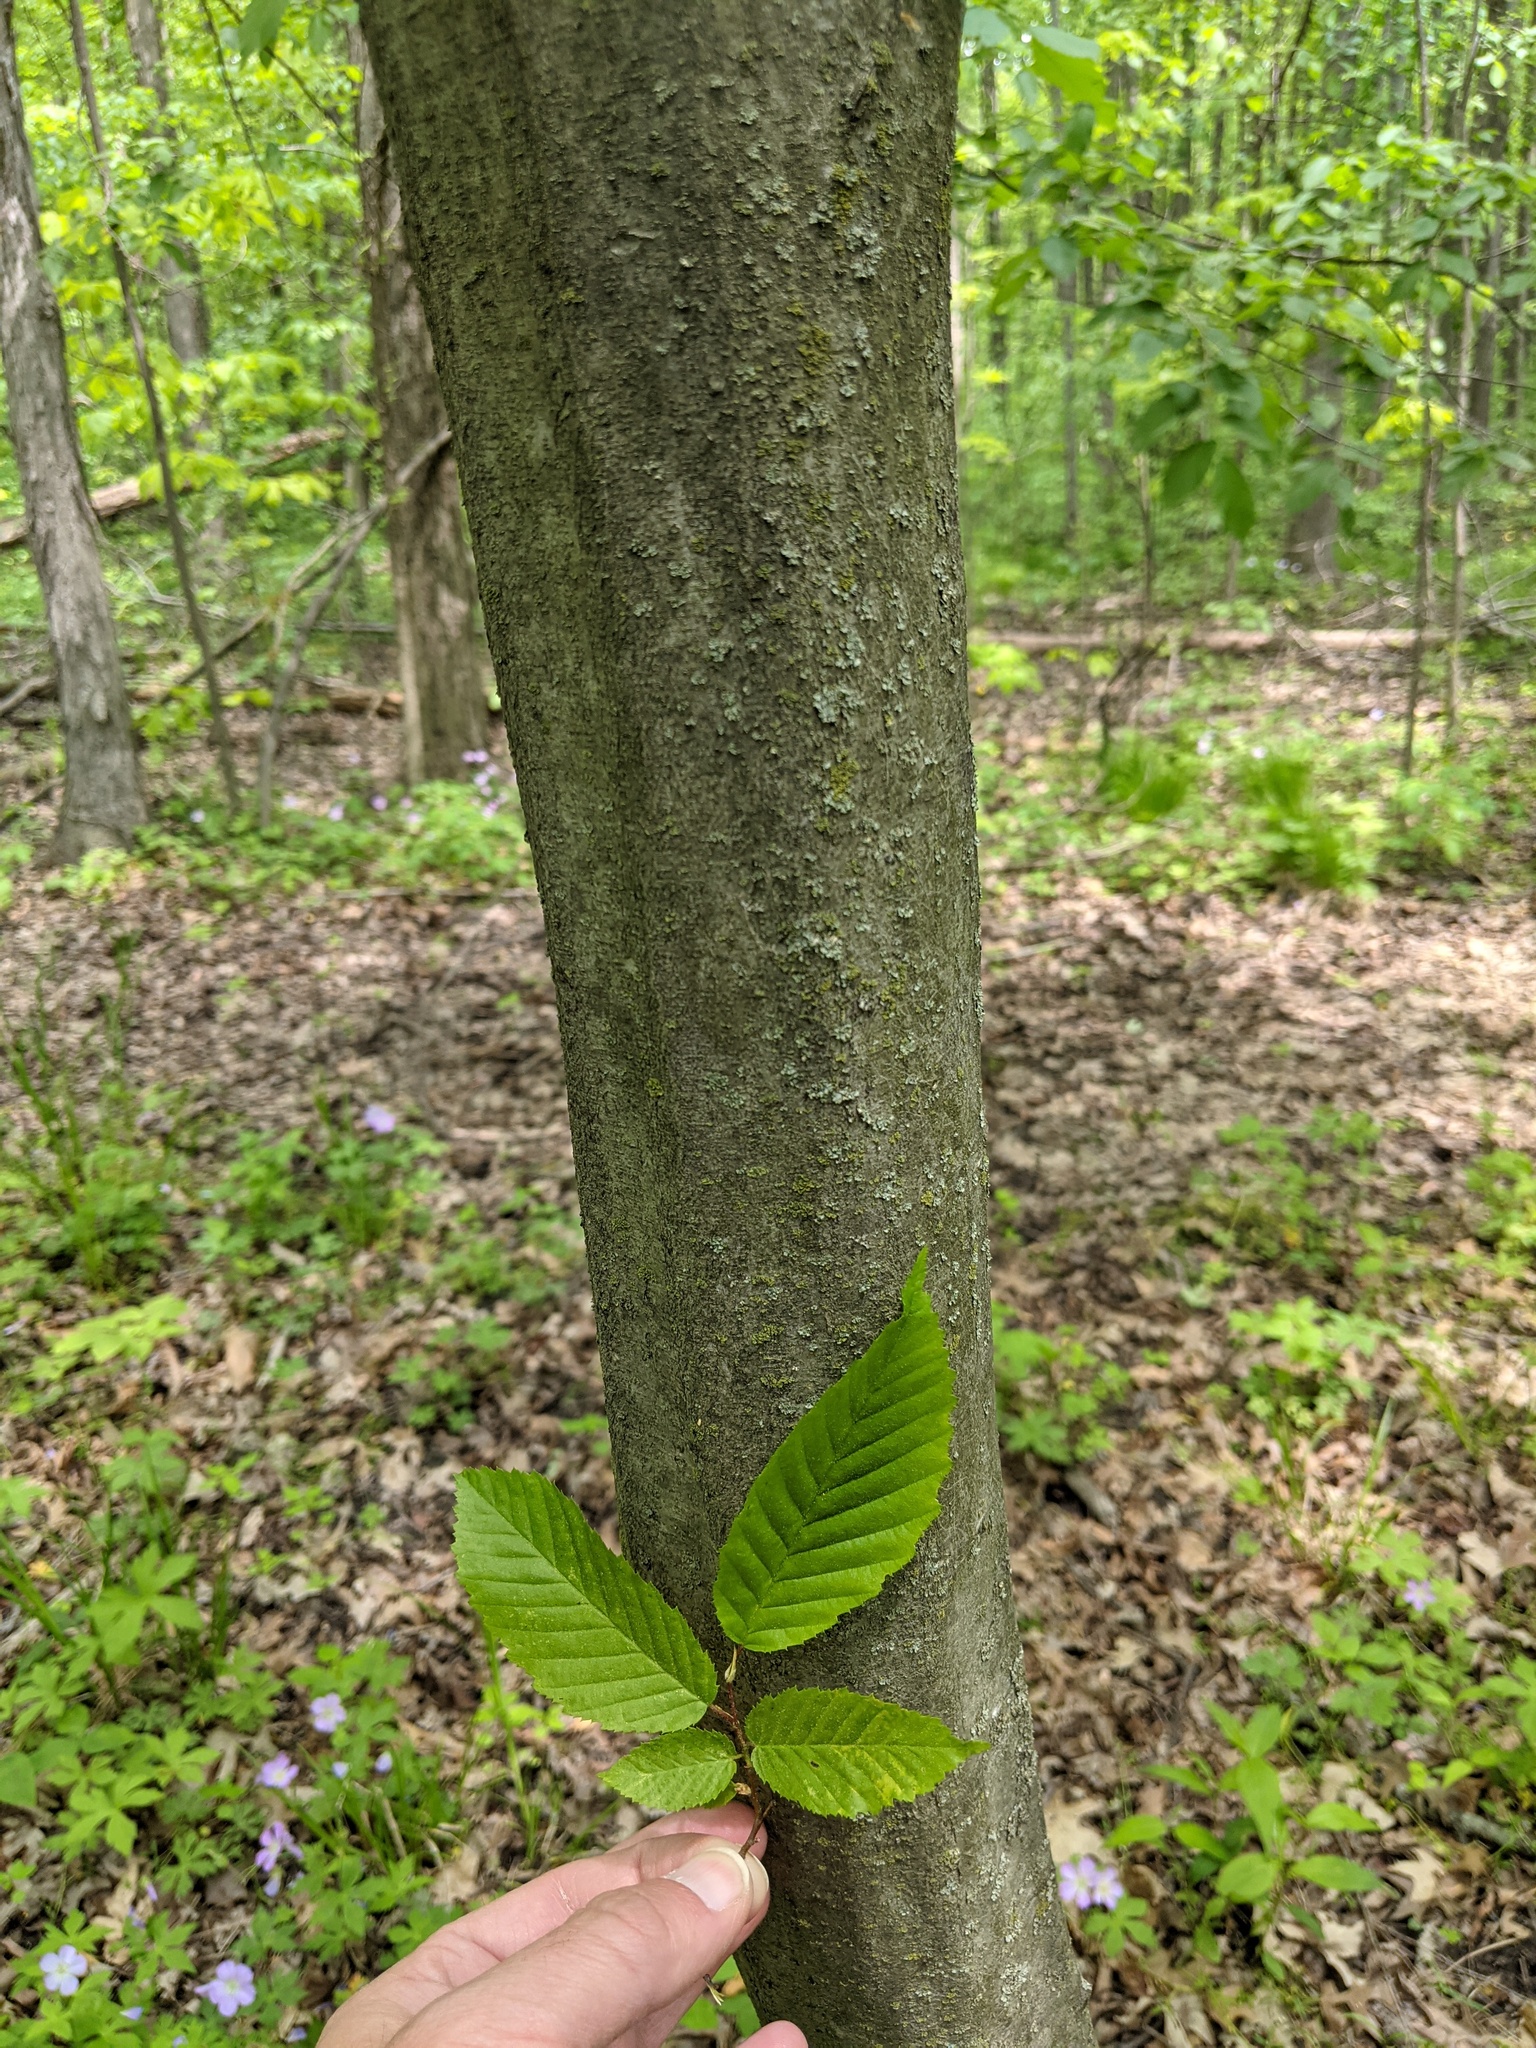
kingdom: Plantae
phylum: Tracheophyta
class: Magnoliopsida
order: Fagales
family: Betulaceae
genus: Carpinus
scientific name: Carpinus caroliniana
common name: American hornbeam
